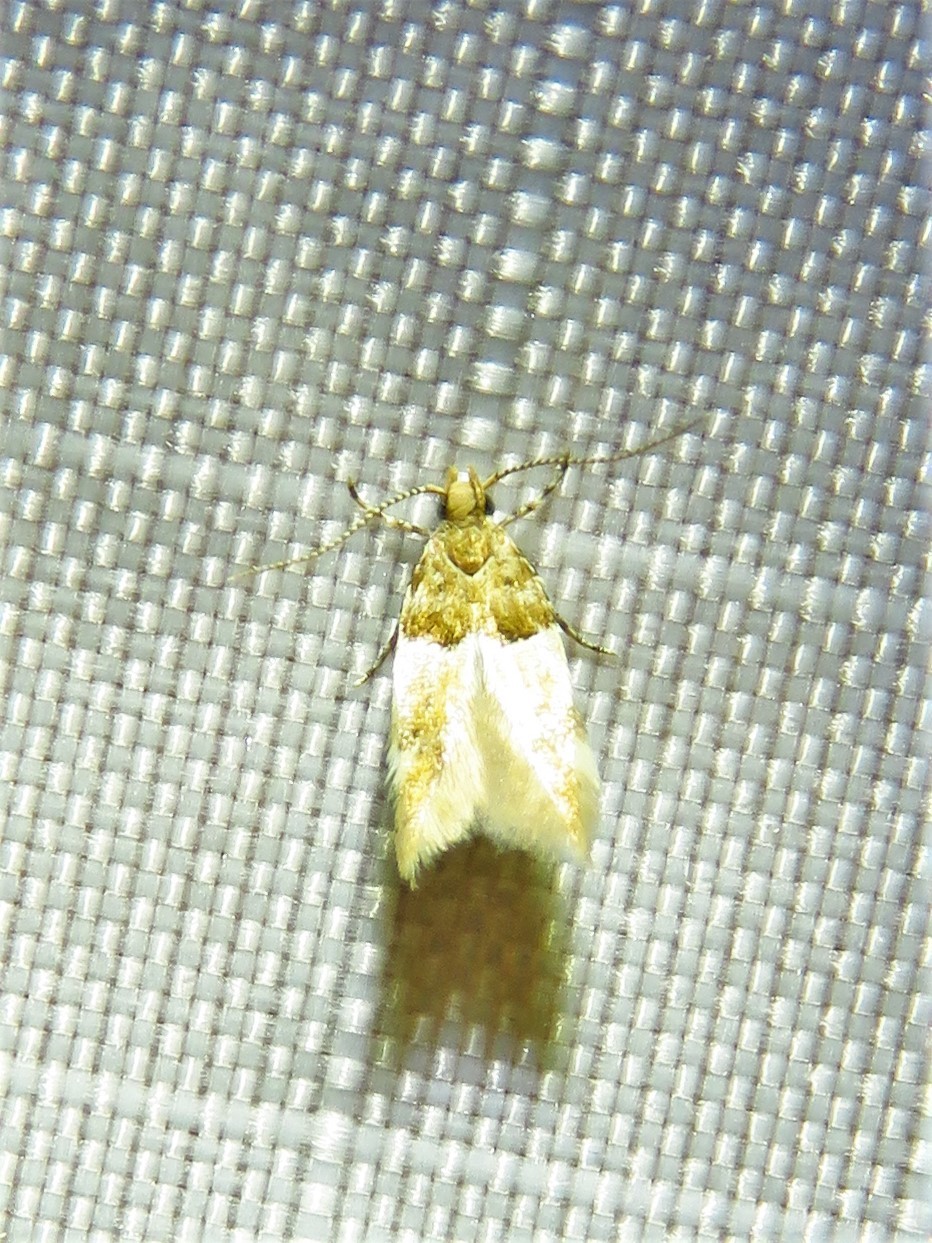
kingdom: Animalia
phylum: Arthropoda
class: Insecta
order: Lepidoptera
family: Gelechiidae
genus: Theisoa
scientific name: Theisoa constrictella
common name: Constricted twirler
